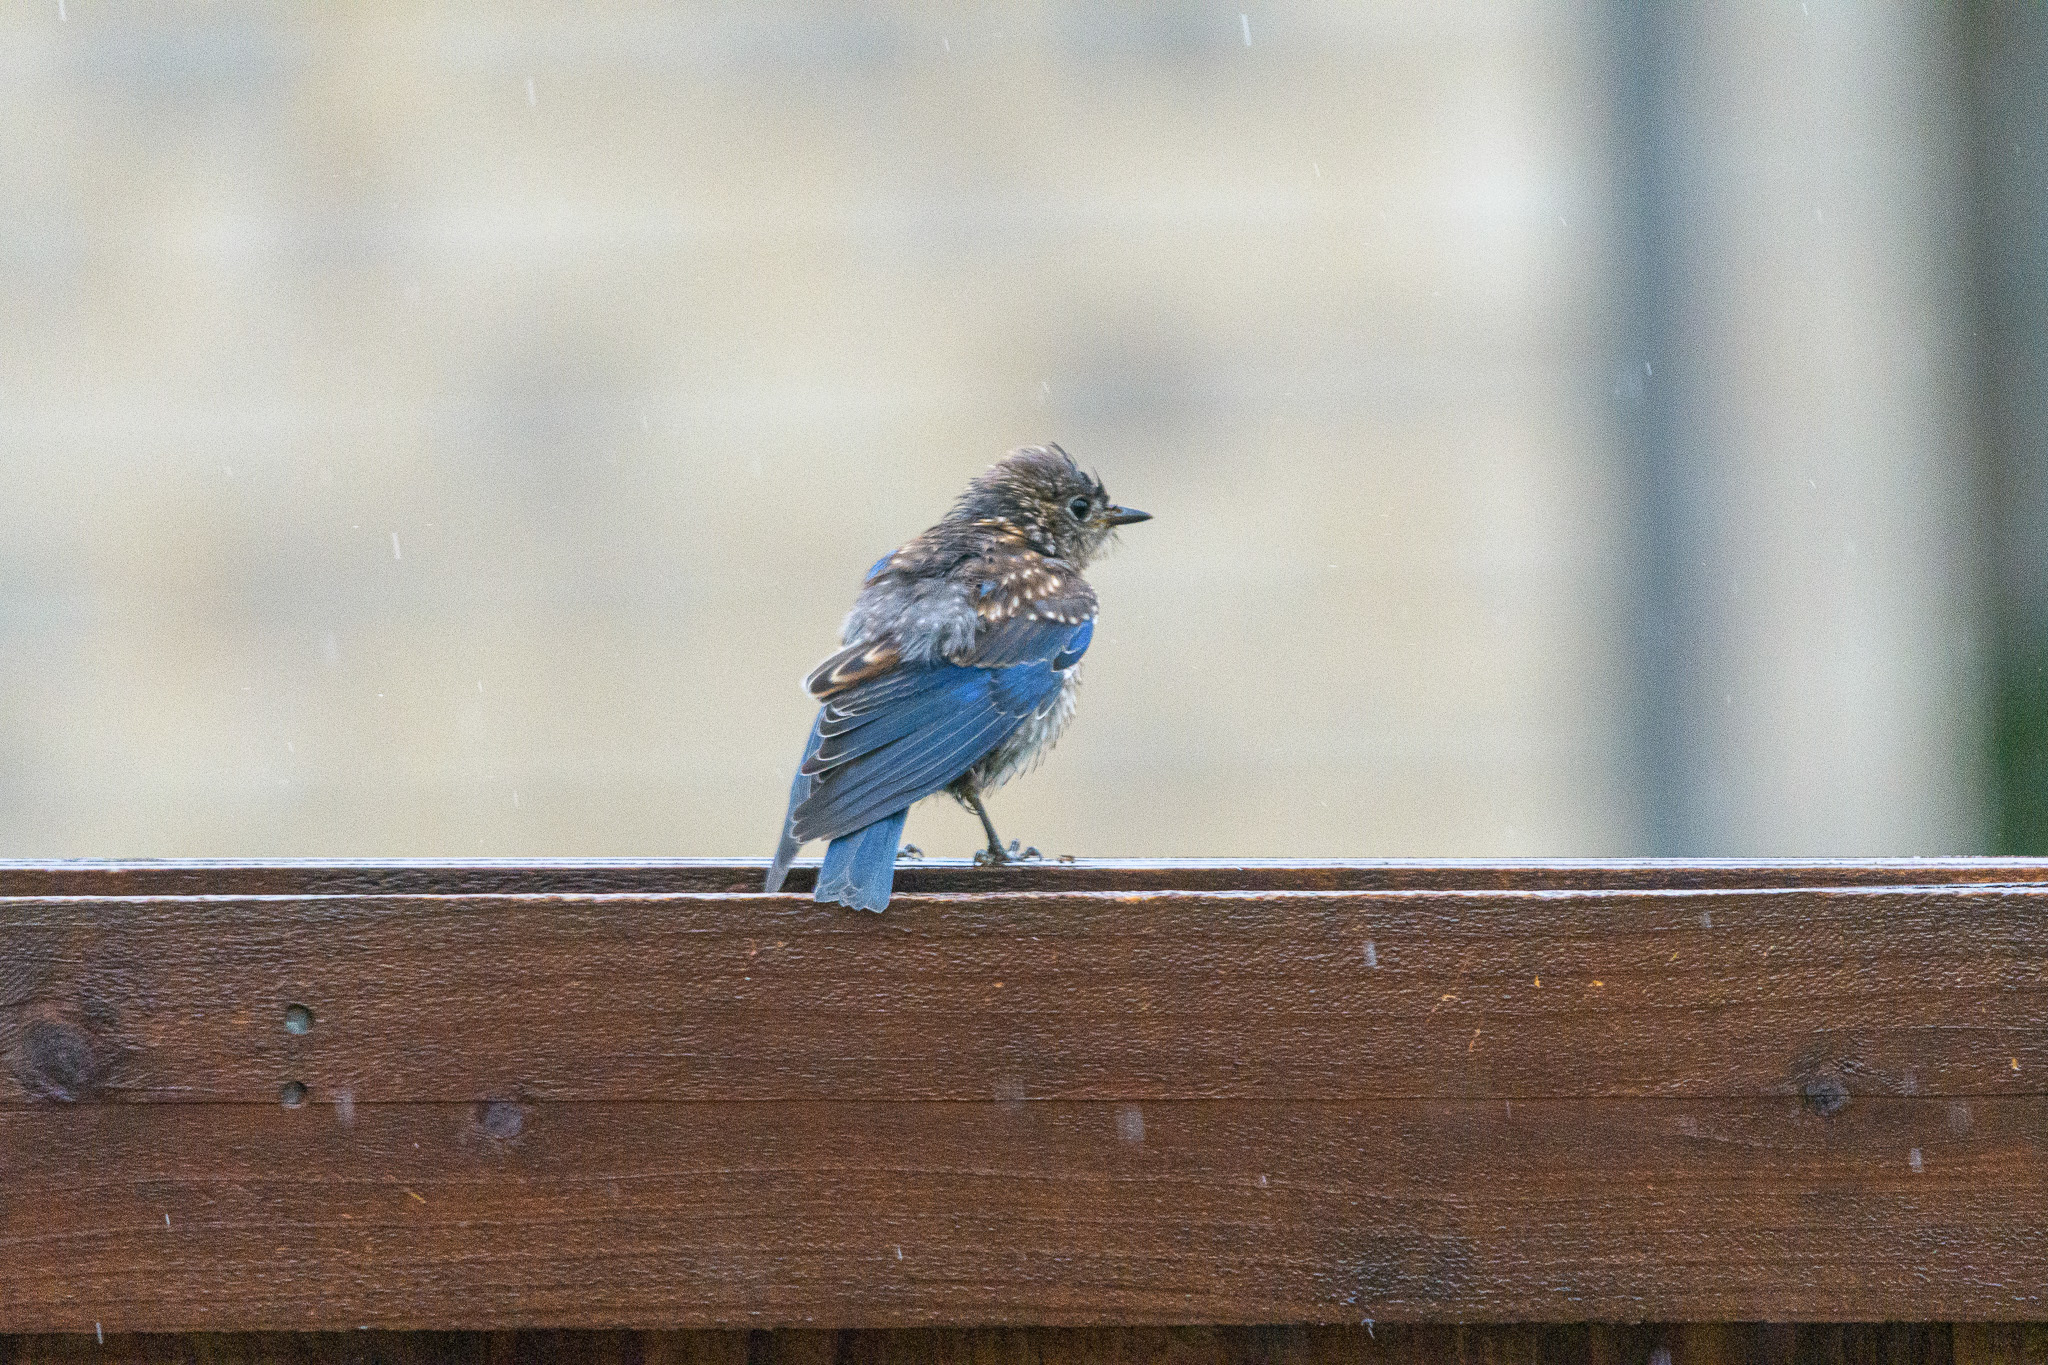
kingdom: Animalia
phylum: Chordata
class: Aves
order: Passeriformes
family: Turdidae
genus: Sialia
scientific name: Sialia sialis
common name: Eastern bluebird
